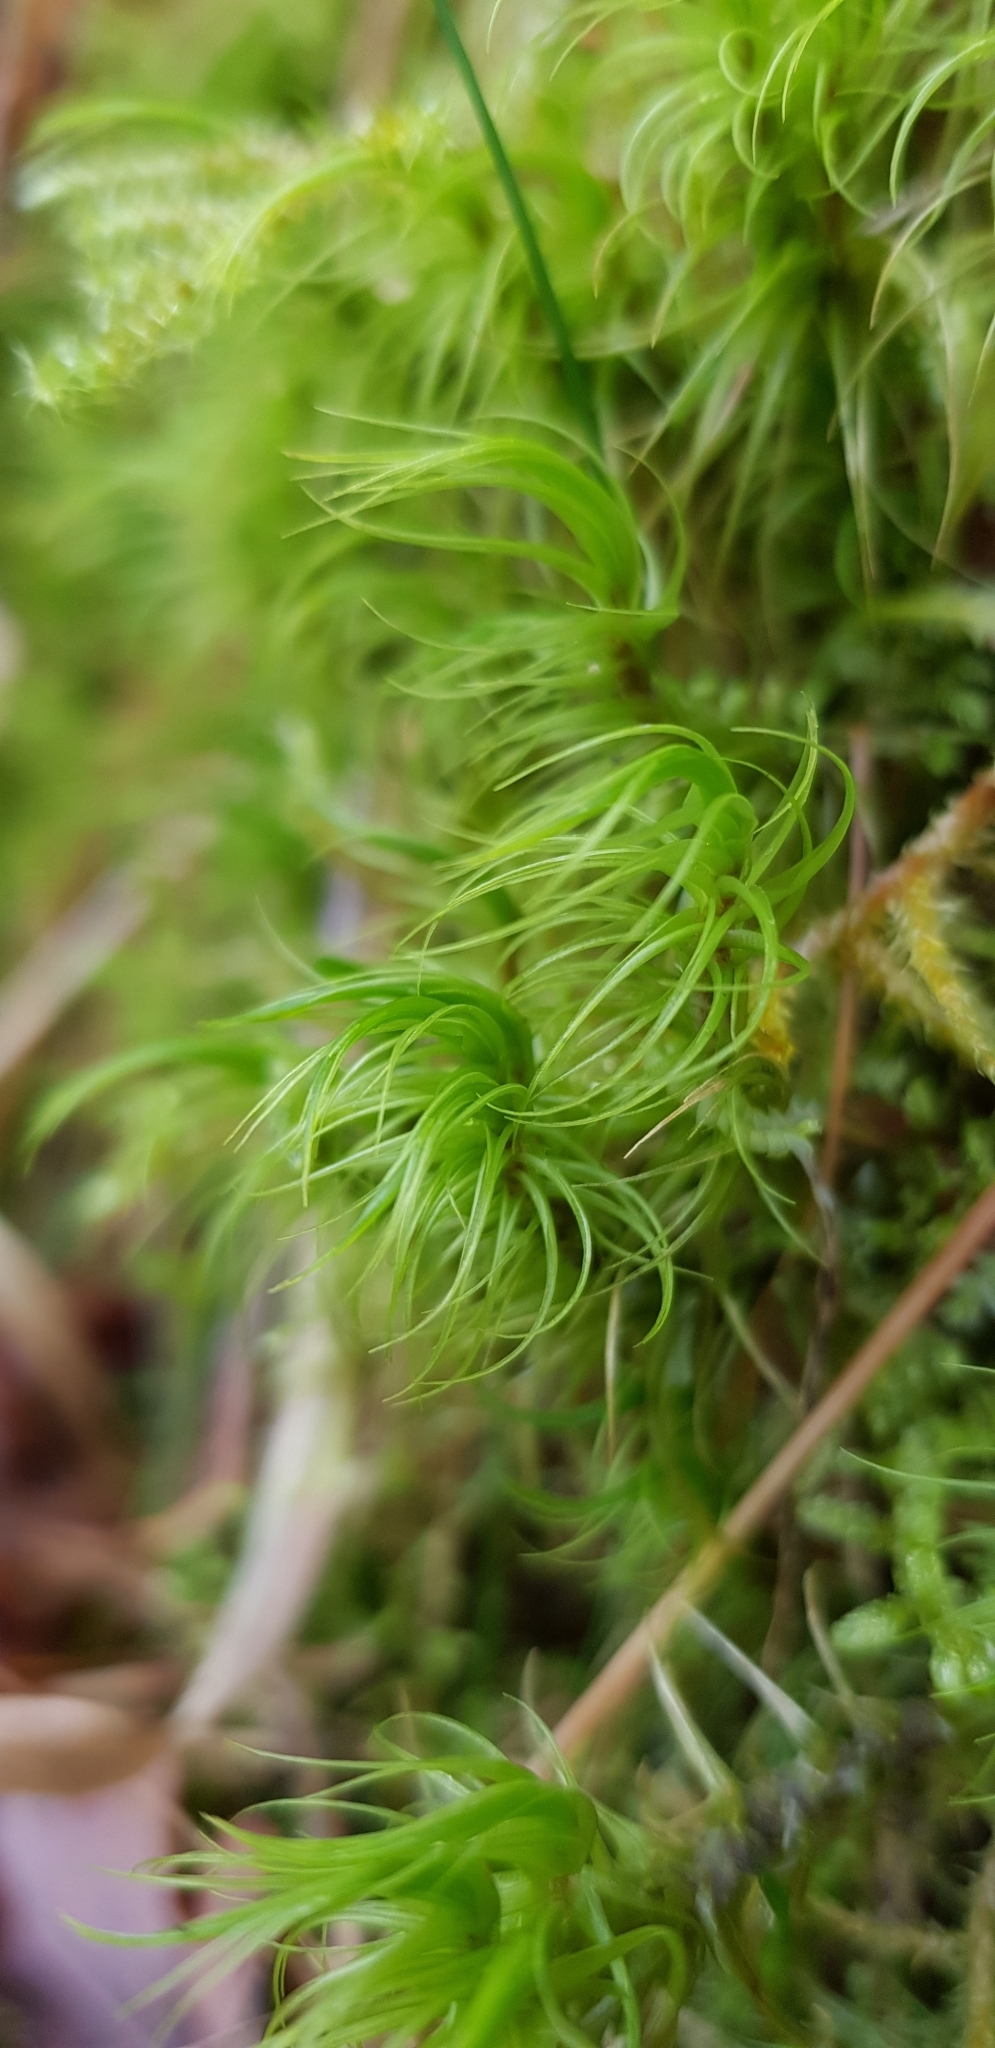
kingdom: Plantae
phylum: Bryophyta
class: Bryopsida
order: Dicranales
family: Dicranaceae
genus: Dicranum
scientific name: Dicranum majus
